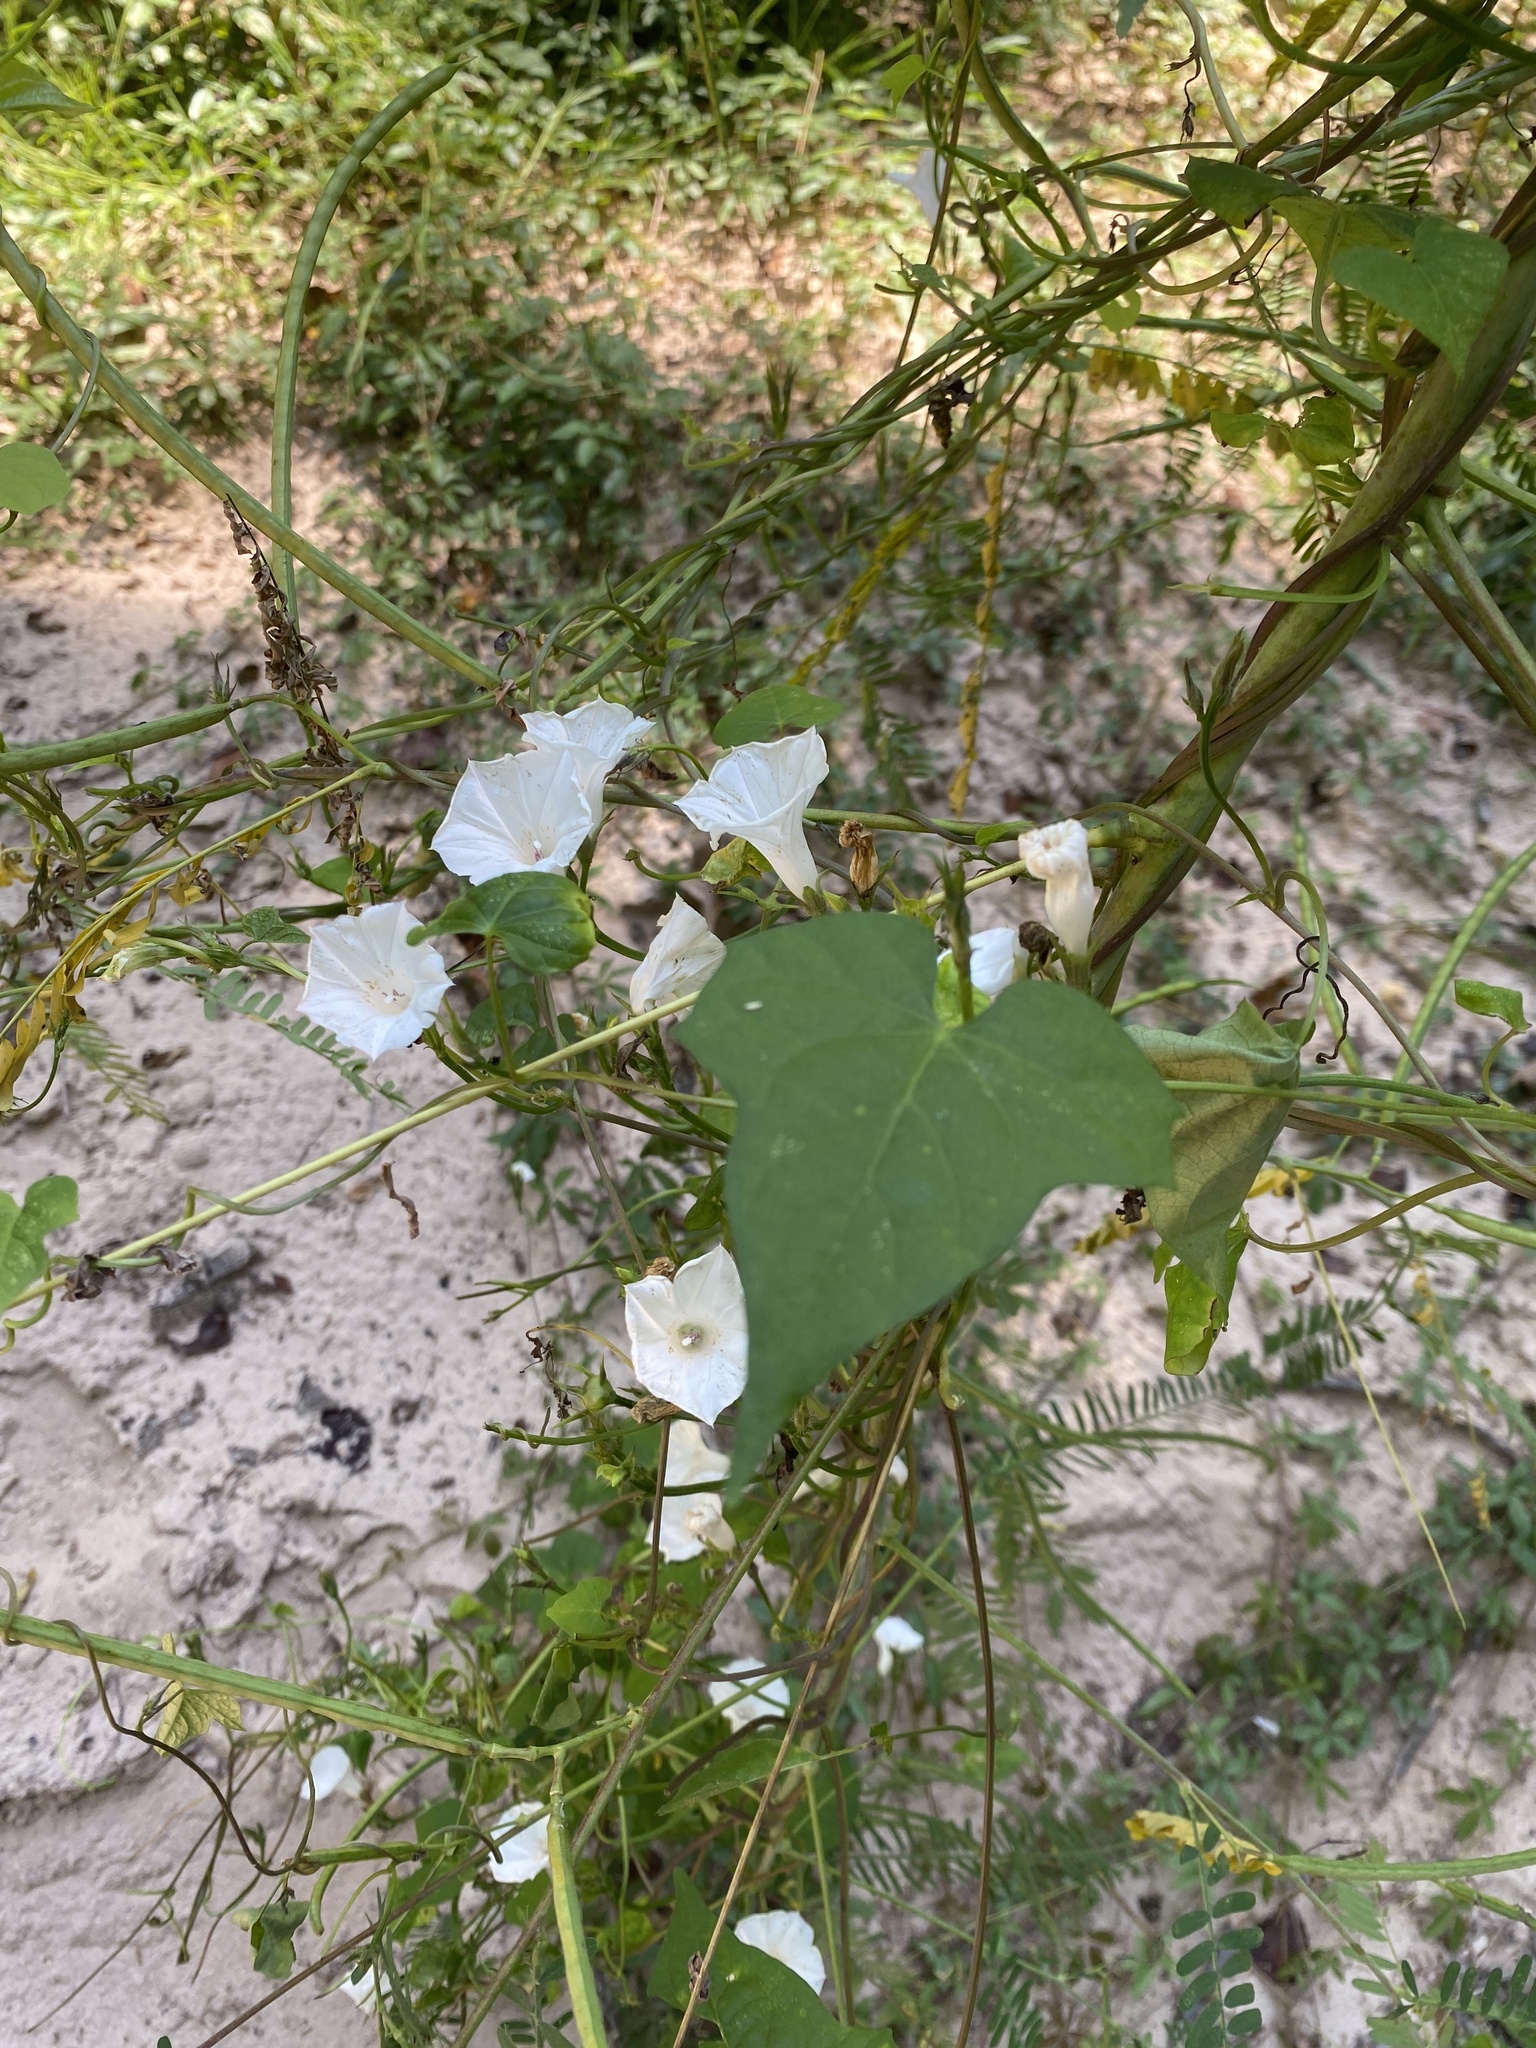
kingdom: Plantae
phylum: Tracheophyta
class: Magnoliopsida
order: Solanales
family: Convolvulaceae
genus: Ipomoea
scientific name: Ipomoea lacunosa
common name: White morning-glory
